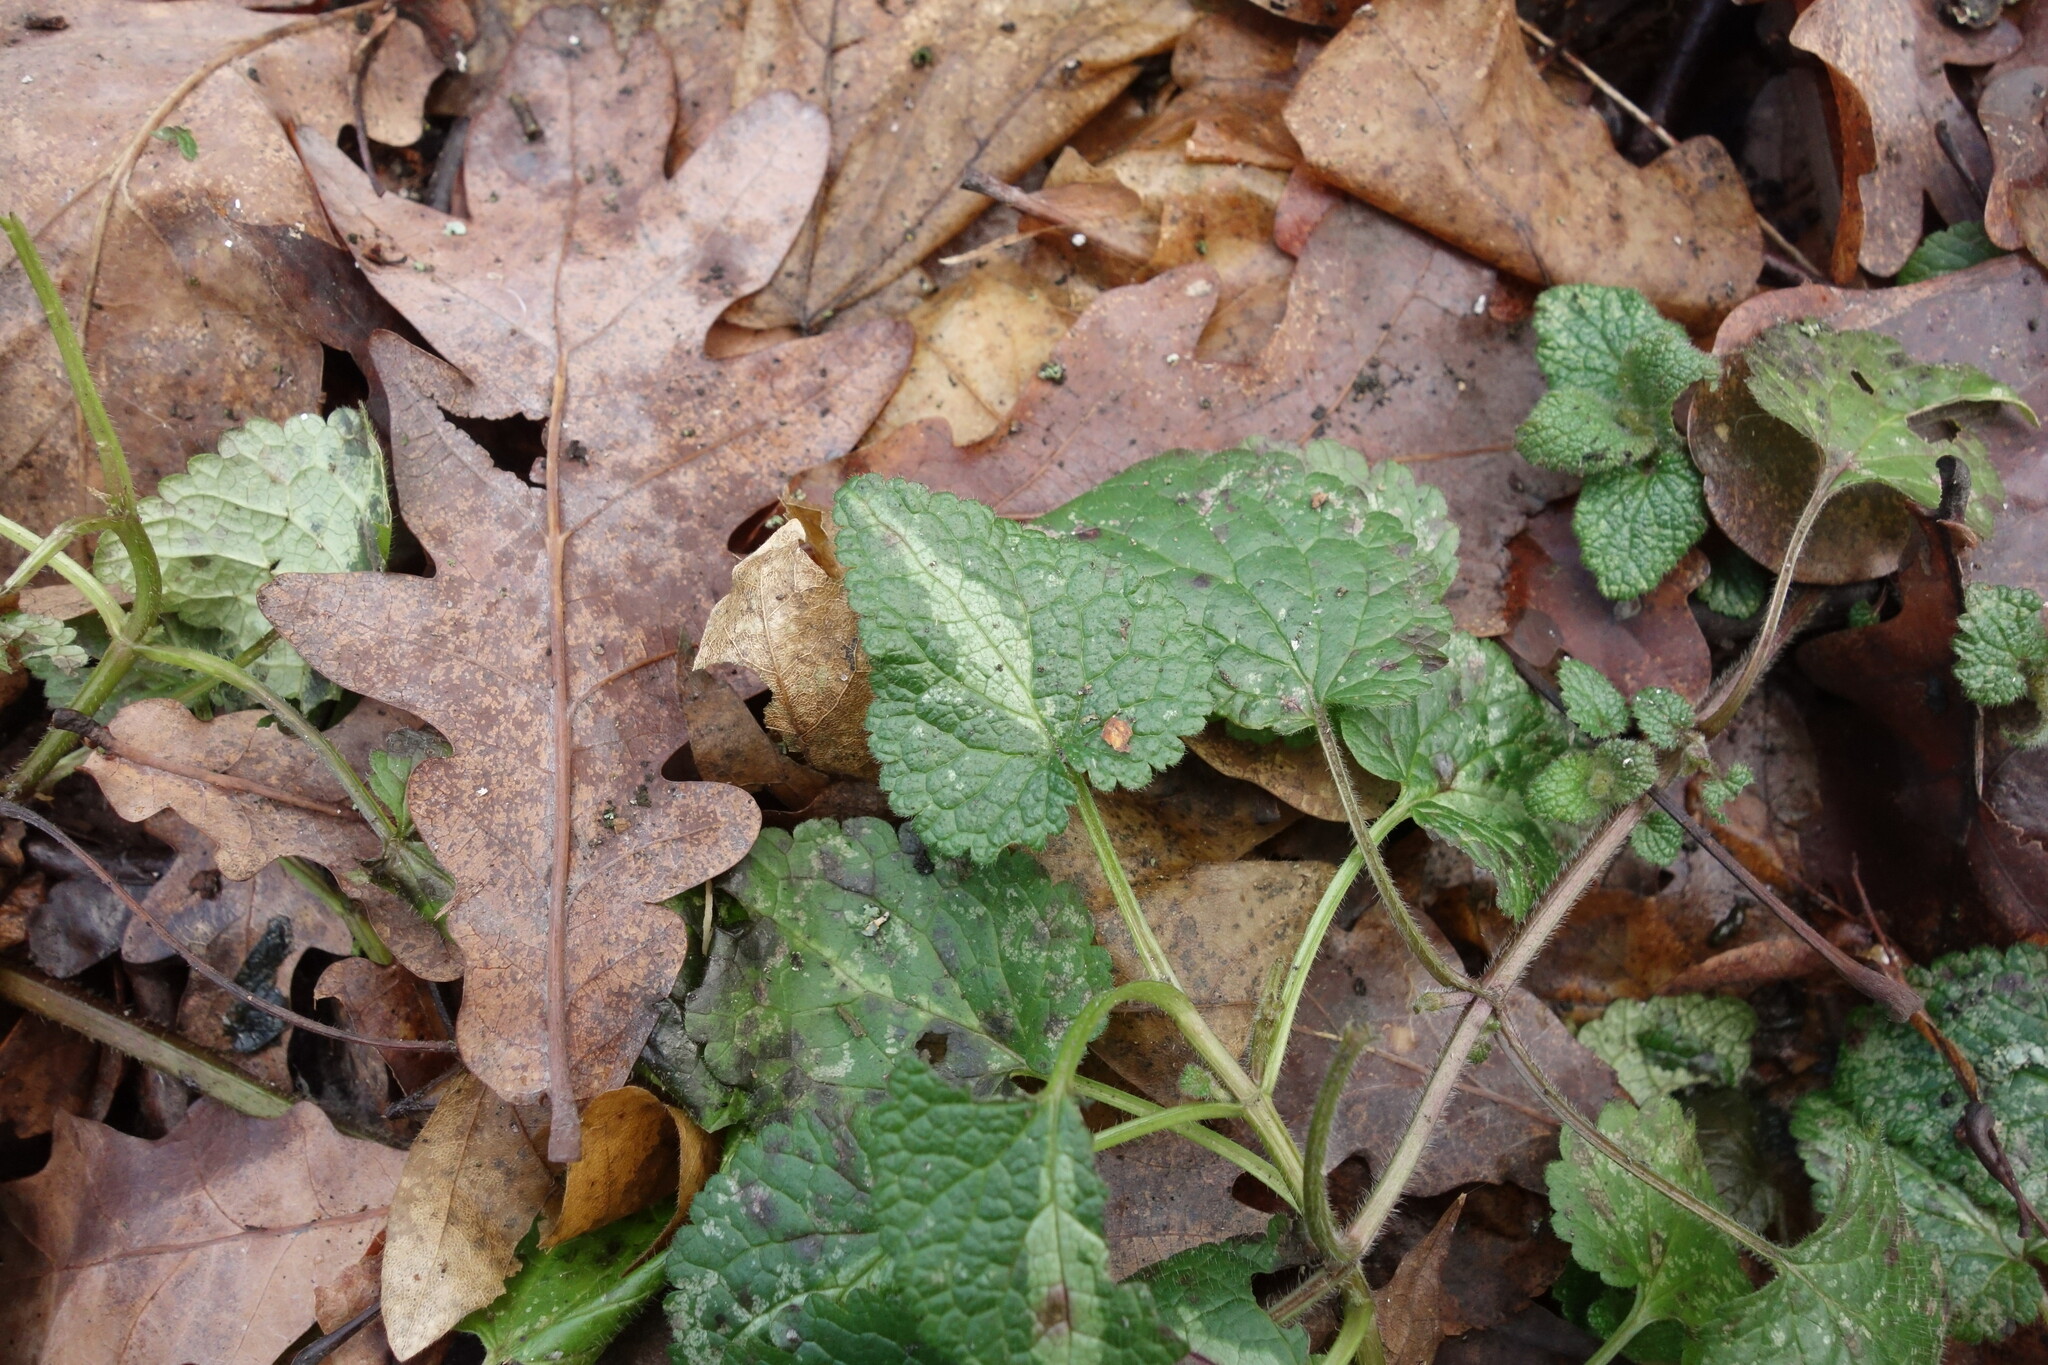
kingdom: Plantae
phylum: Tracheophyta
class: Magnoliopsida
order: Lamiales
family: Lamiaceae
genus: Lamium
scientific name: Lamium maculatum
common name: Spotted dead-nettle
